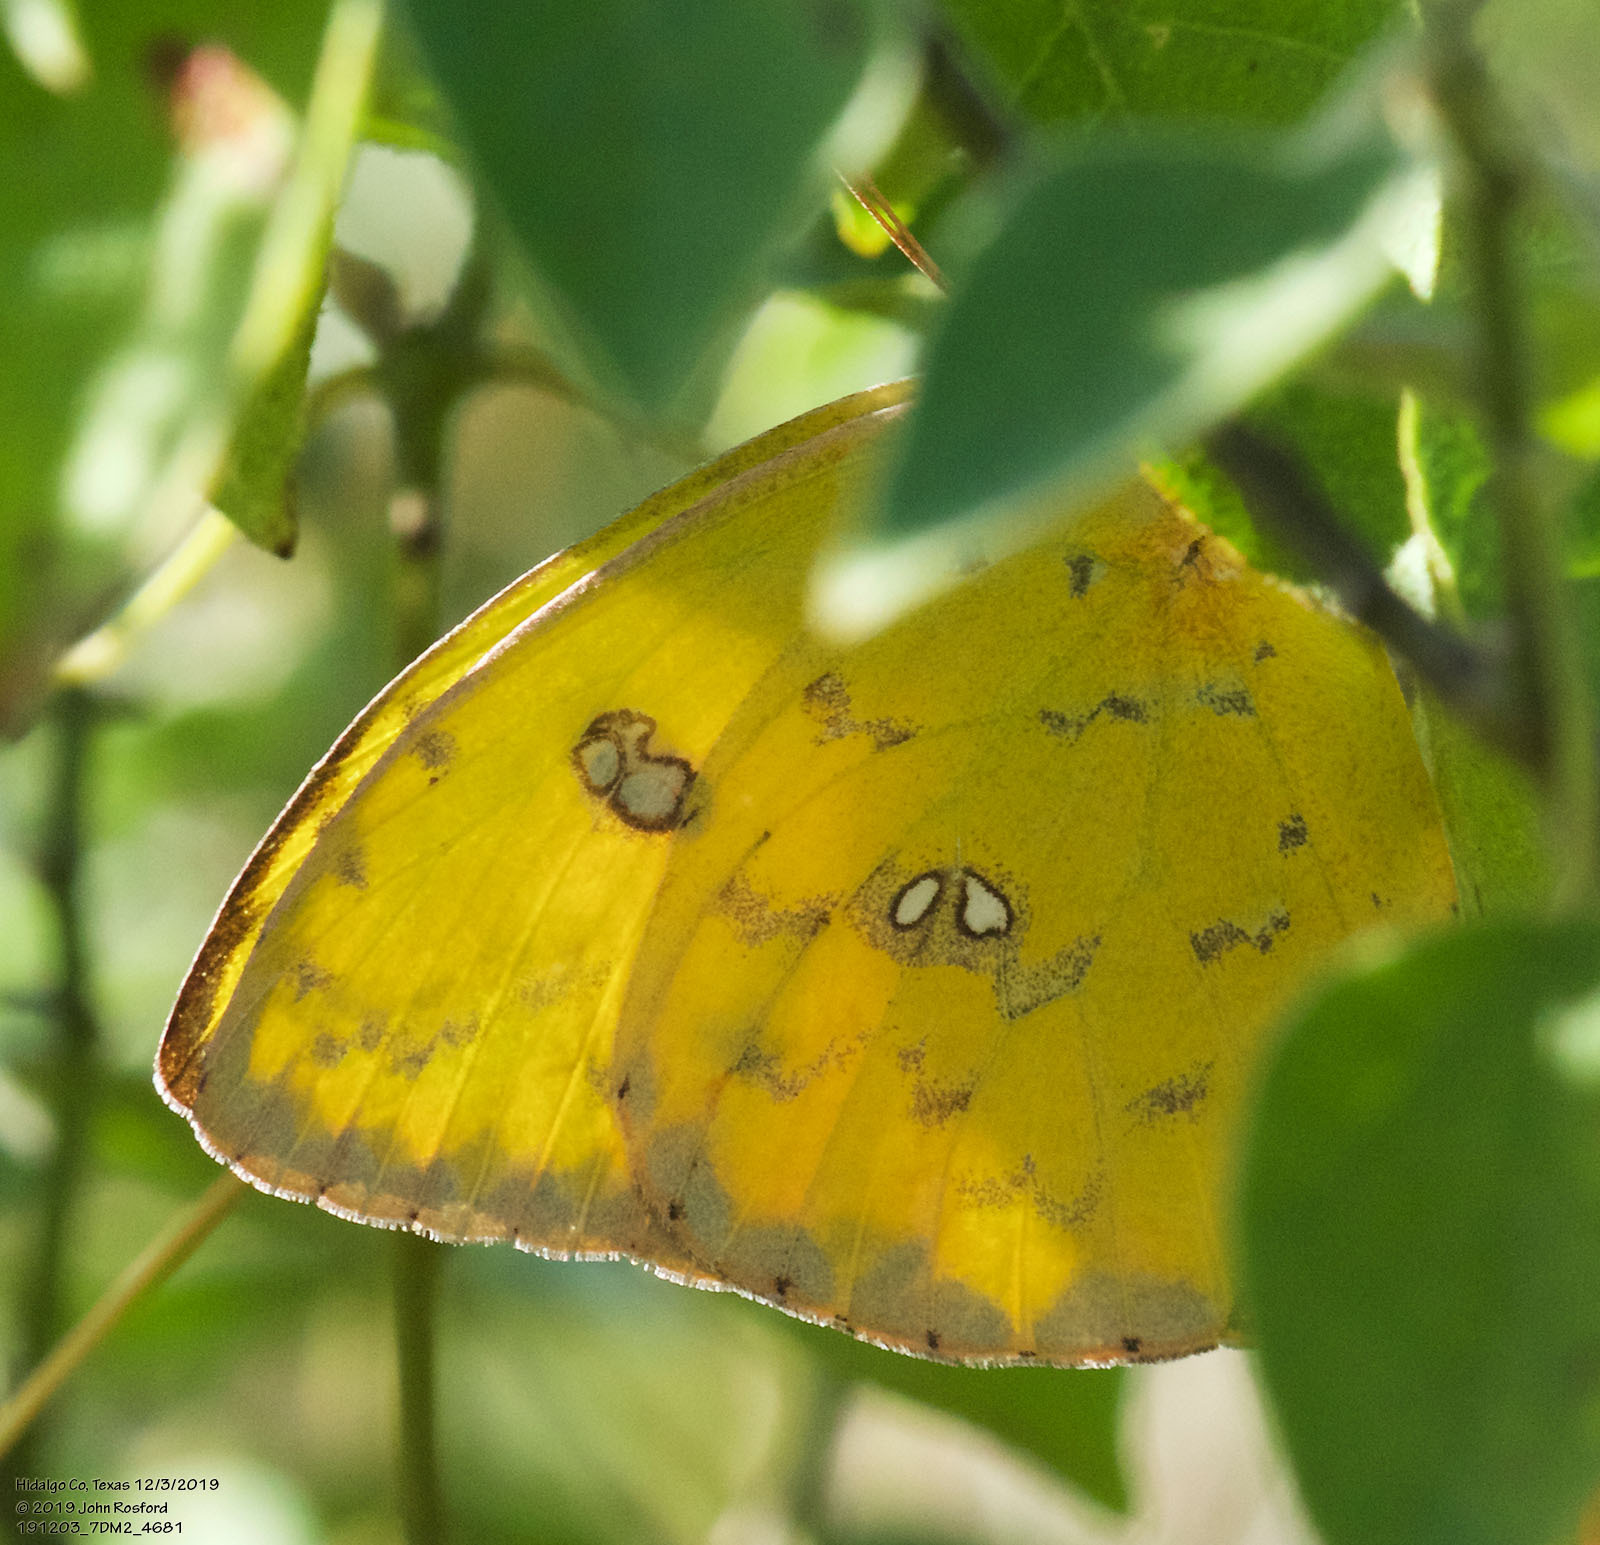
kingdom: Animalia
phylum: Arthropoda
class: Insecta
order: Lepidoptera
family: Pieridae
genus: Phoebis
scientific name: Phoebis sennae
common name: Cloudless sulphur
